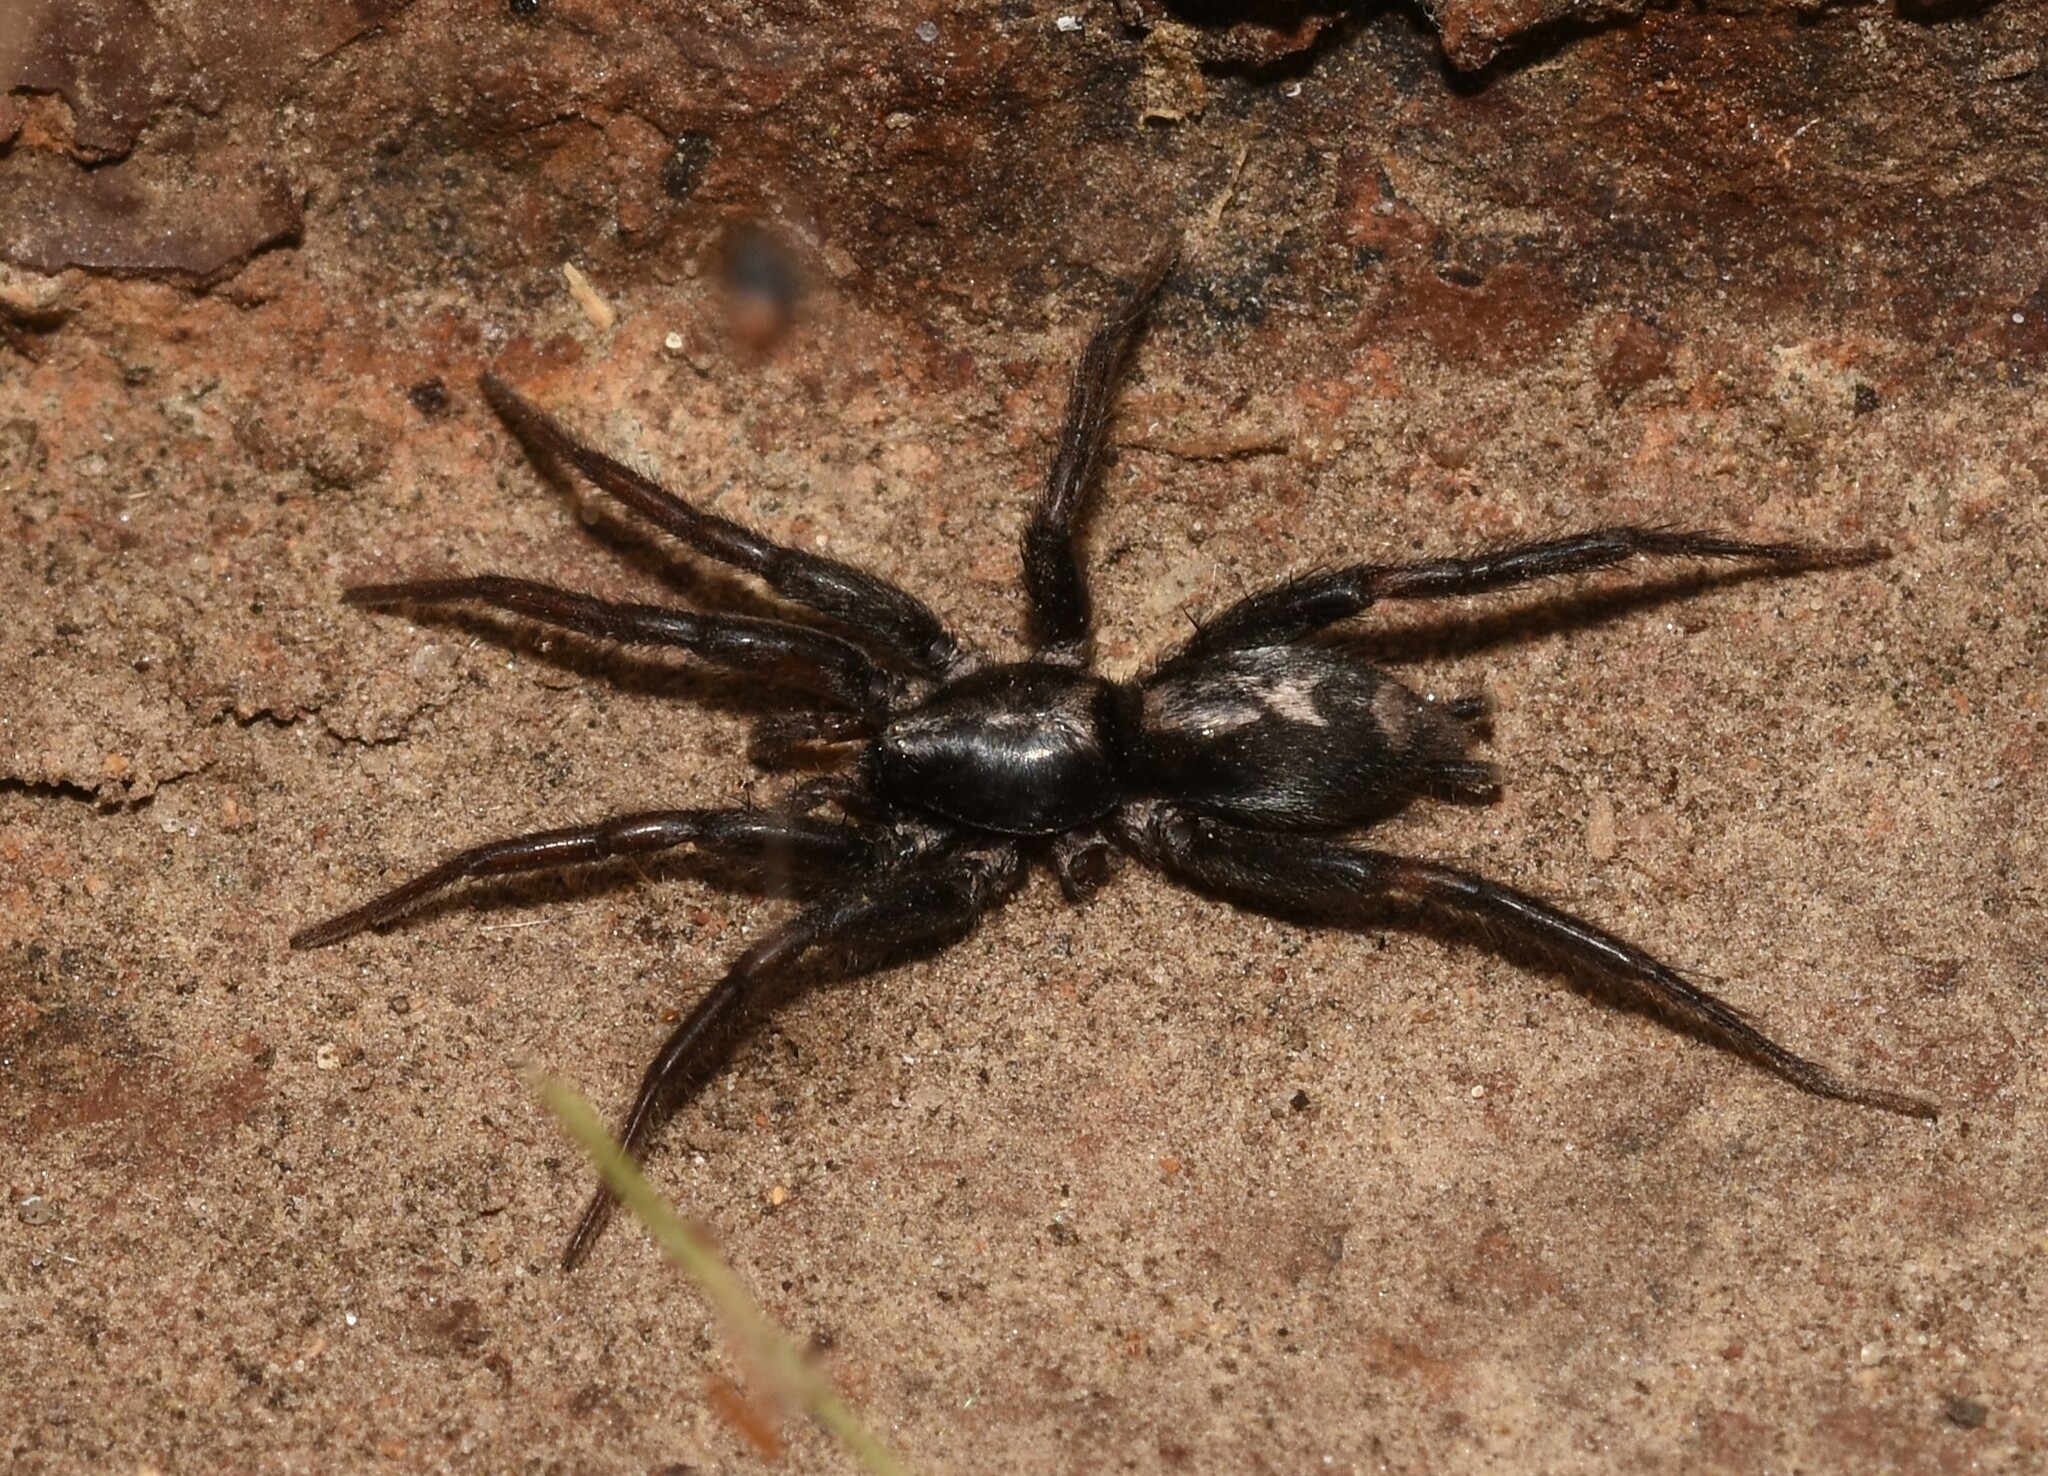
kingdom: Animalia
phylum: Arthropoda
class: Arachnida
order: Araneae
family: Gnaphosidae
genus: Herpyllus
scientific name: Herpyllus ecclesiasticus
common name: Eastern parson spider
